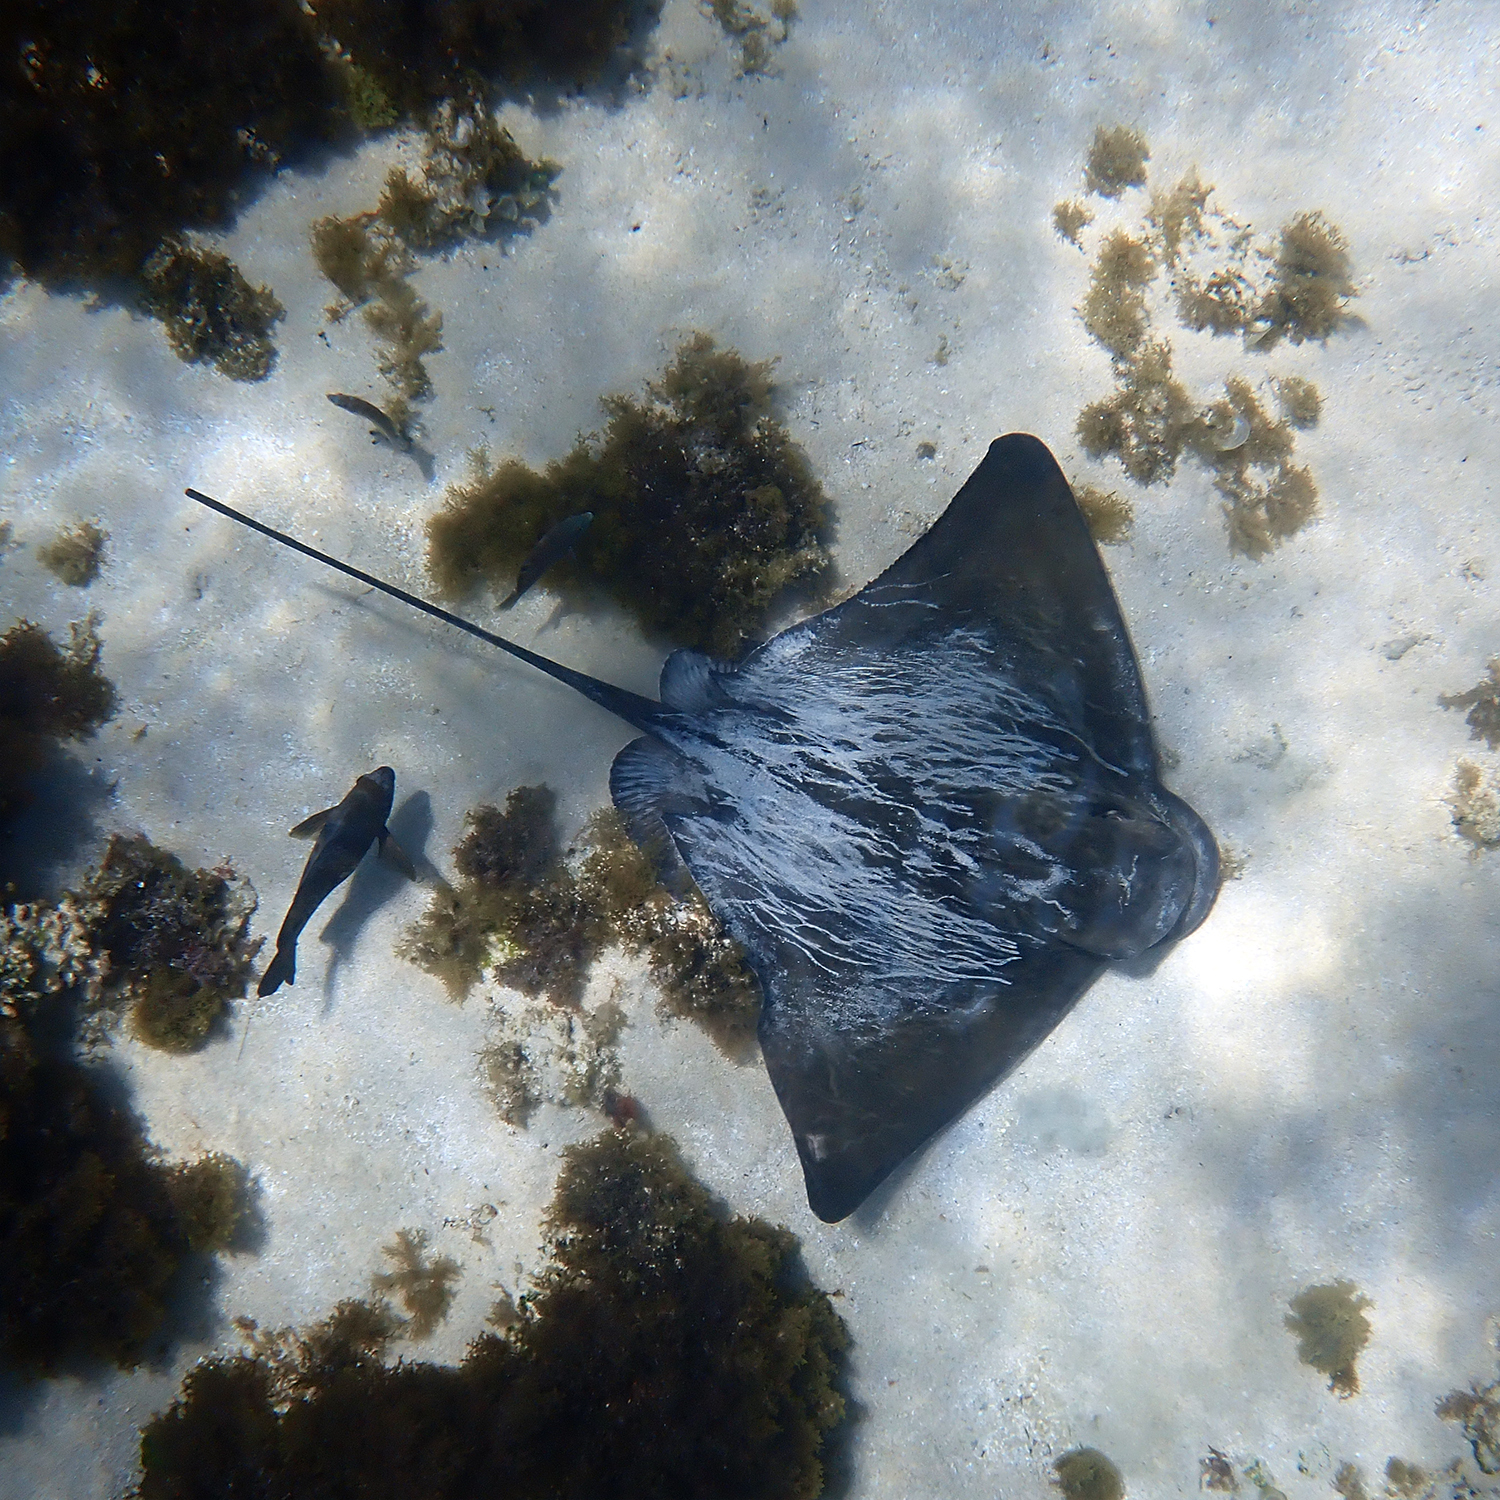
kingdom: Animalia
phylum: Chordata
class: Elasmobranchii
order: Myliobatiformes
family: Myliobatidae
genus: Myliobatis
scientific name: Myliobatis tenuicaudatus
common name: Eagle ray
